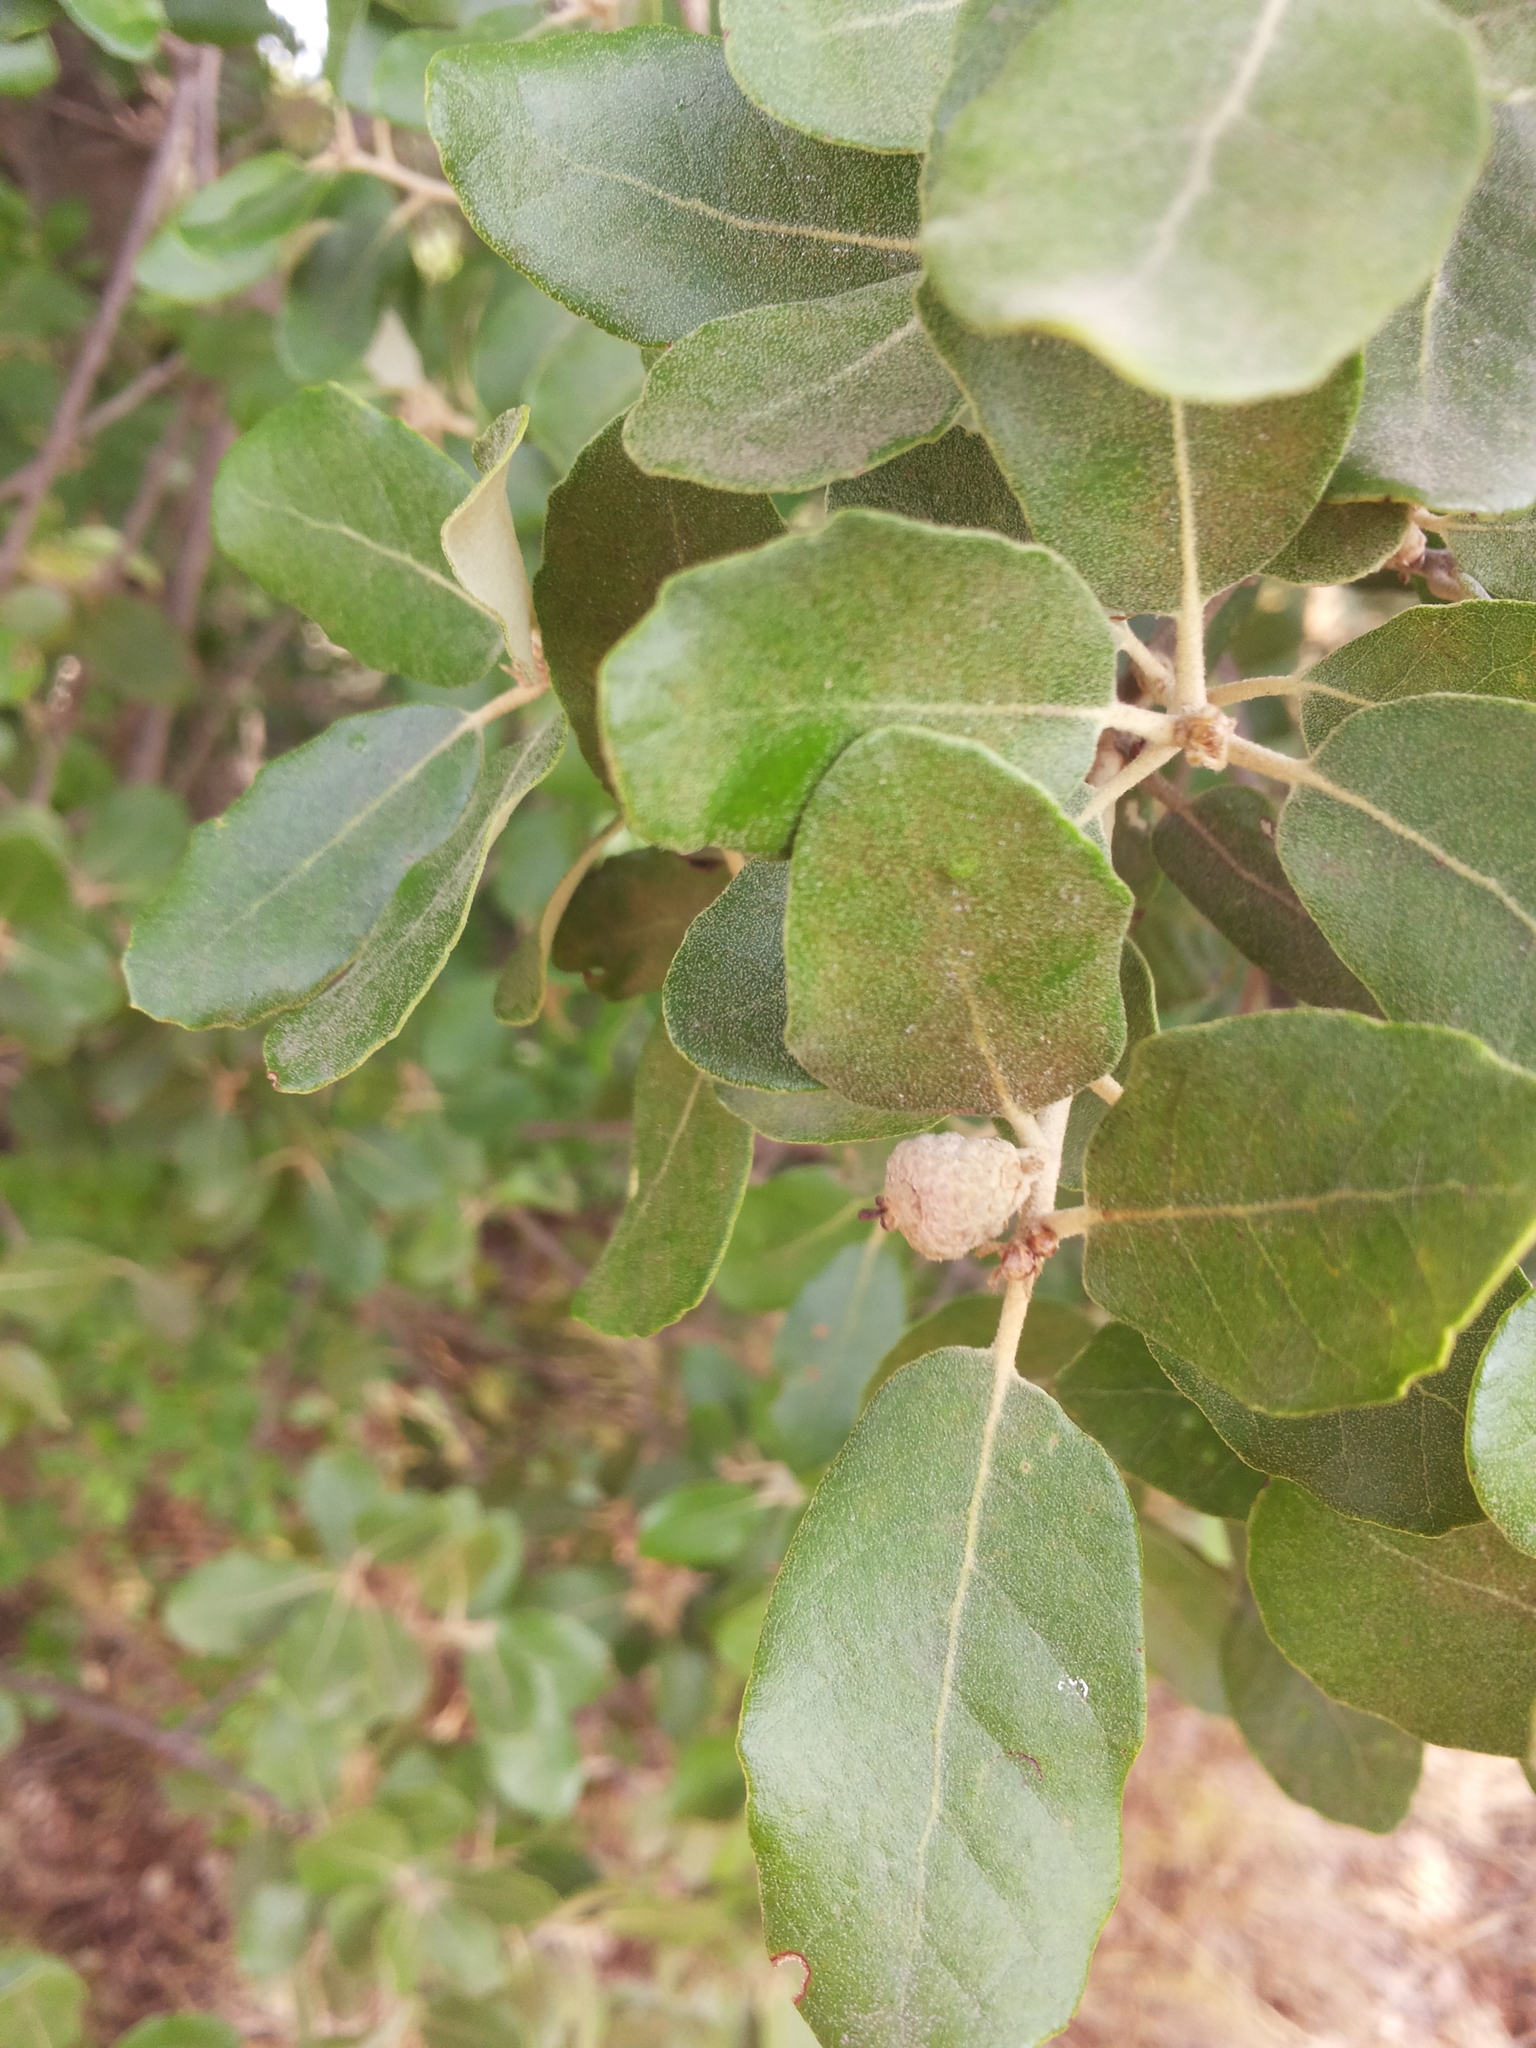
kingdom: Plantae
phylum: Tracheophyta
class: Magnoliopsida
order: Fagales
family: Fagaceae
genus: Quercus
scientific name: Quercus ilex
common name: Evergreen oak
